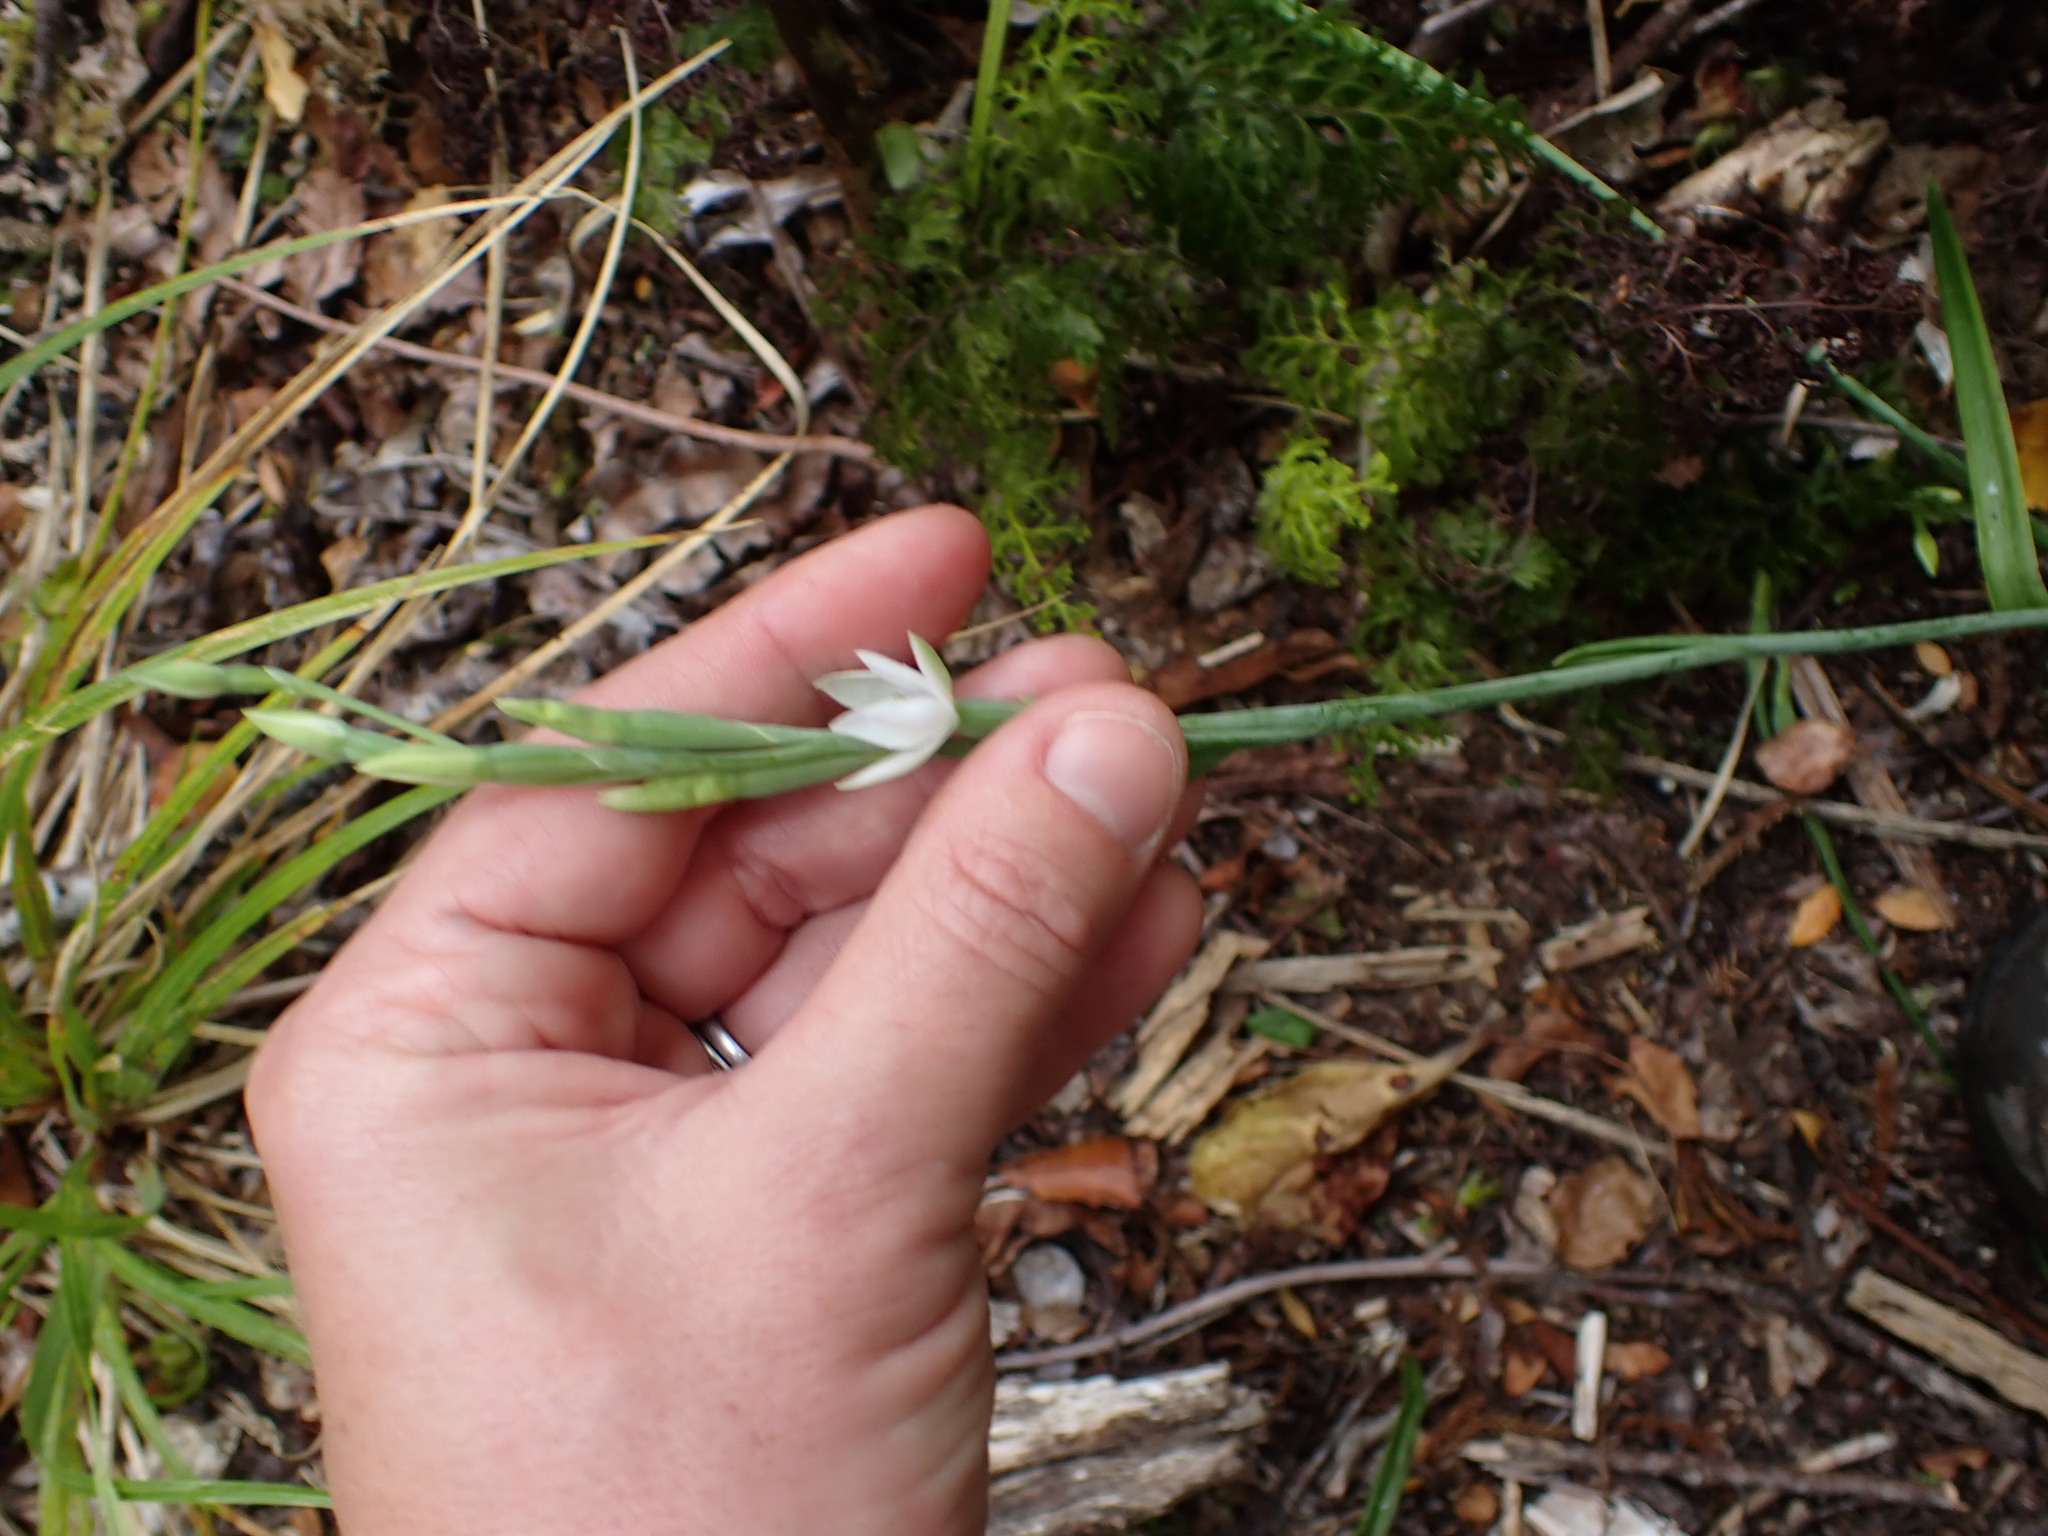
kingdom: Plantae
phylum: Tracheophyta
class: Liliopsida
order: Asparagales
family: Orchidaceae
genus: Thelymitra
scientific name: Thelymitra longifolia
